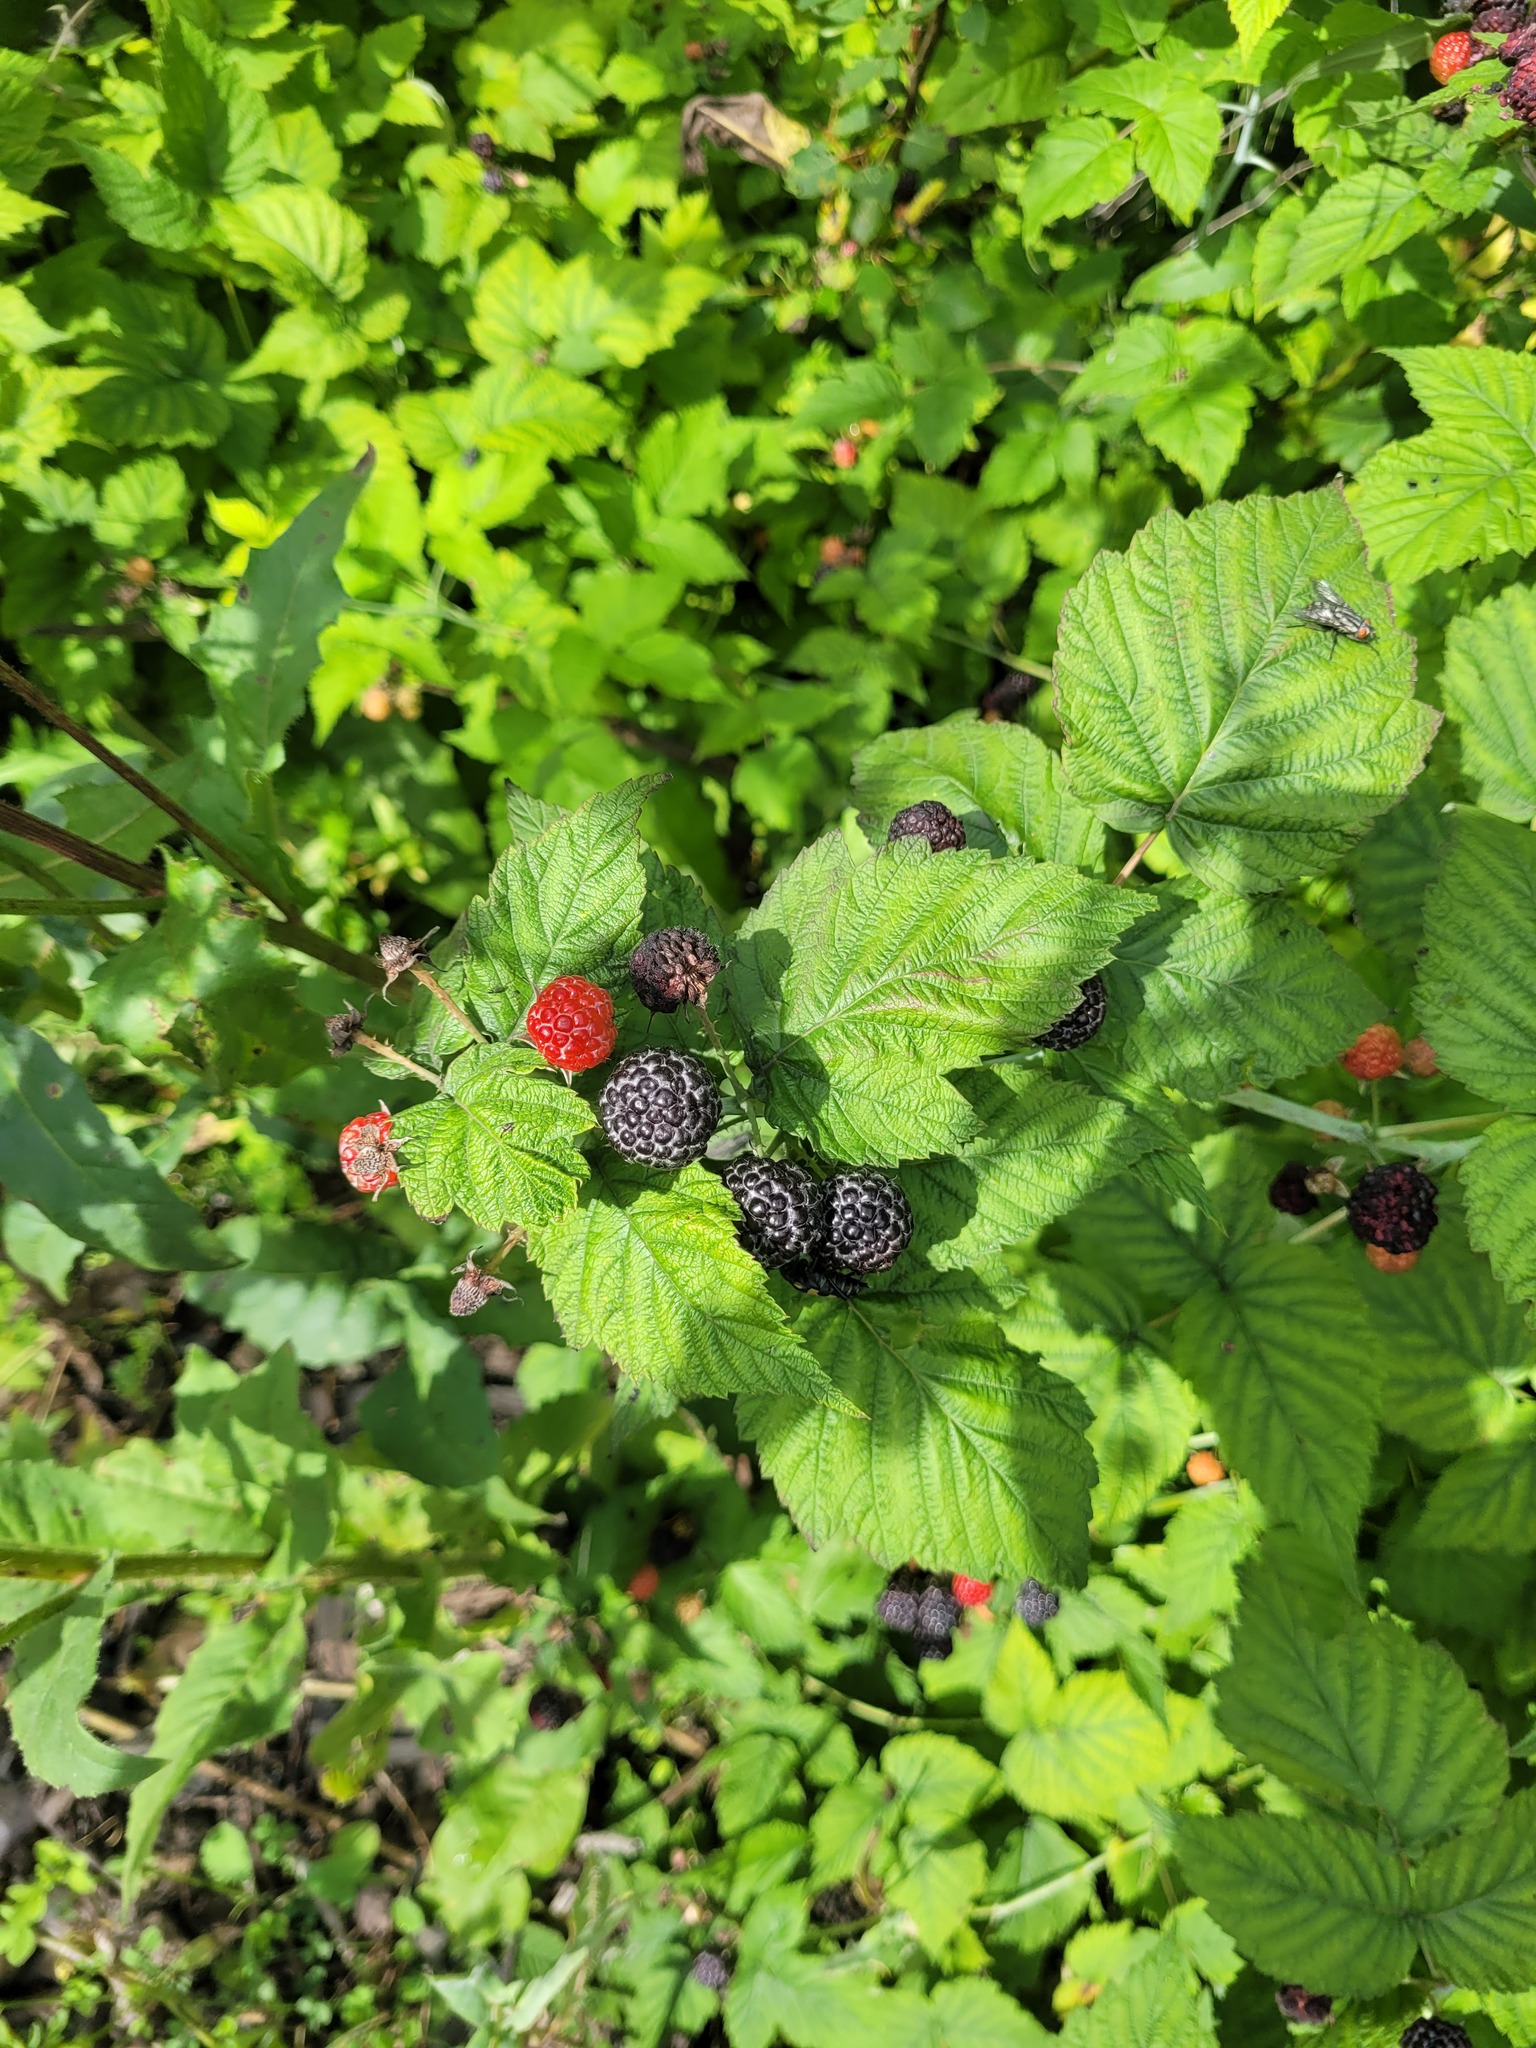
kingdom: Plantae
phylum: Tracheophyta
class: Magnoliopsida
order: Rosales
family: Rosaceae
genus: Rubus
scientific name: Rubus occidentalis
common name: Black raspberry
